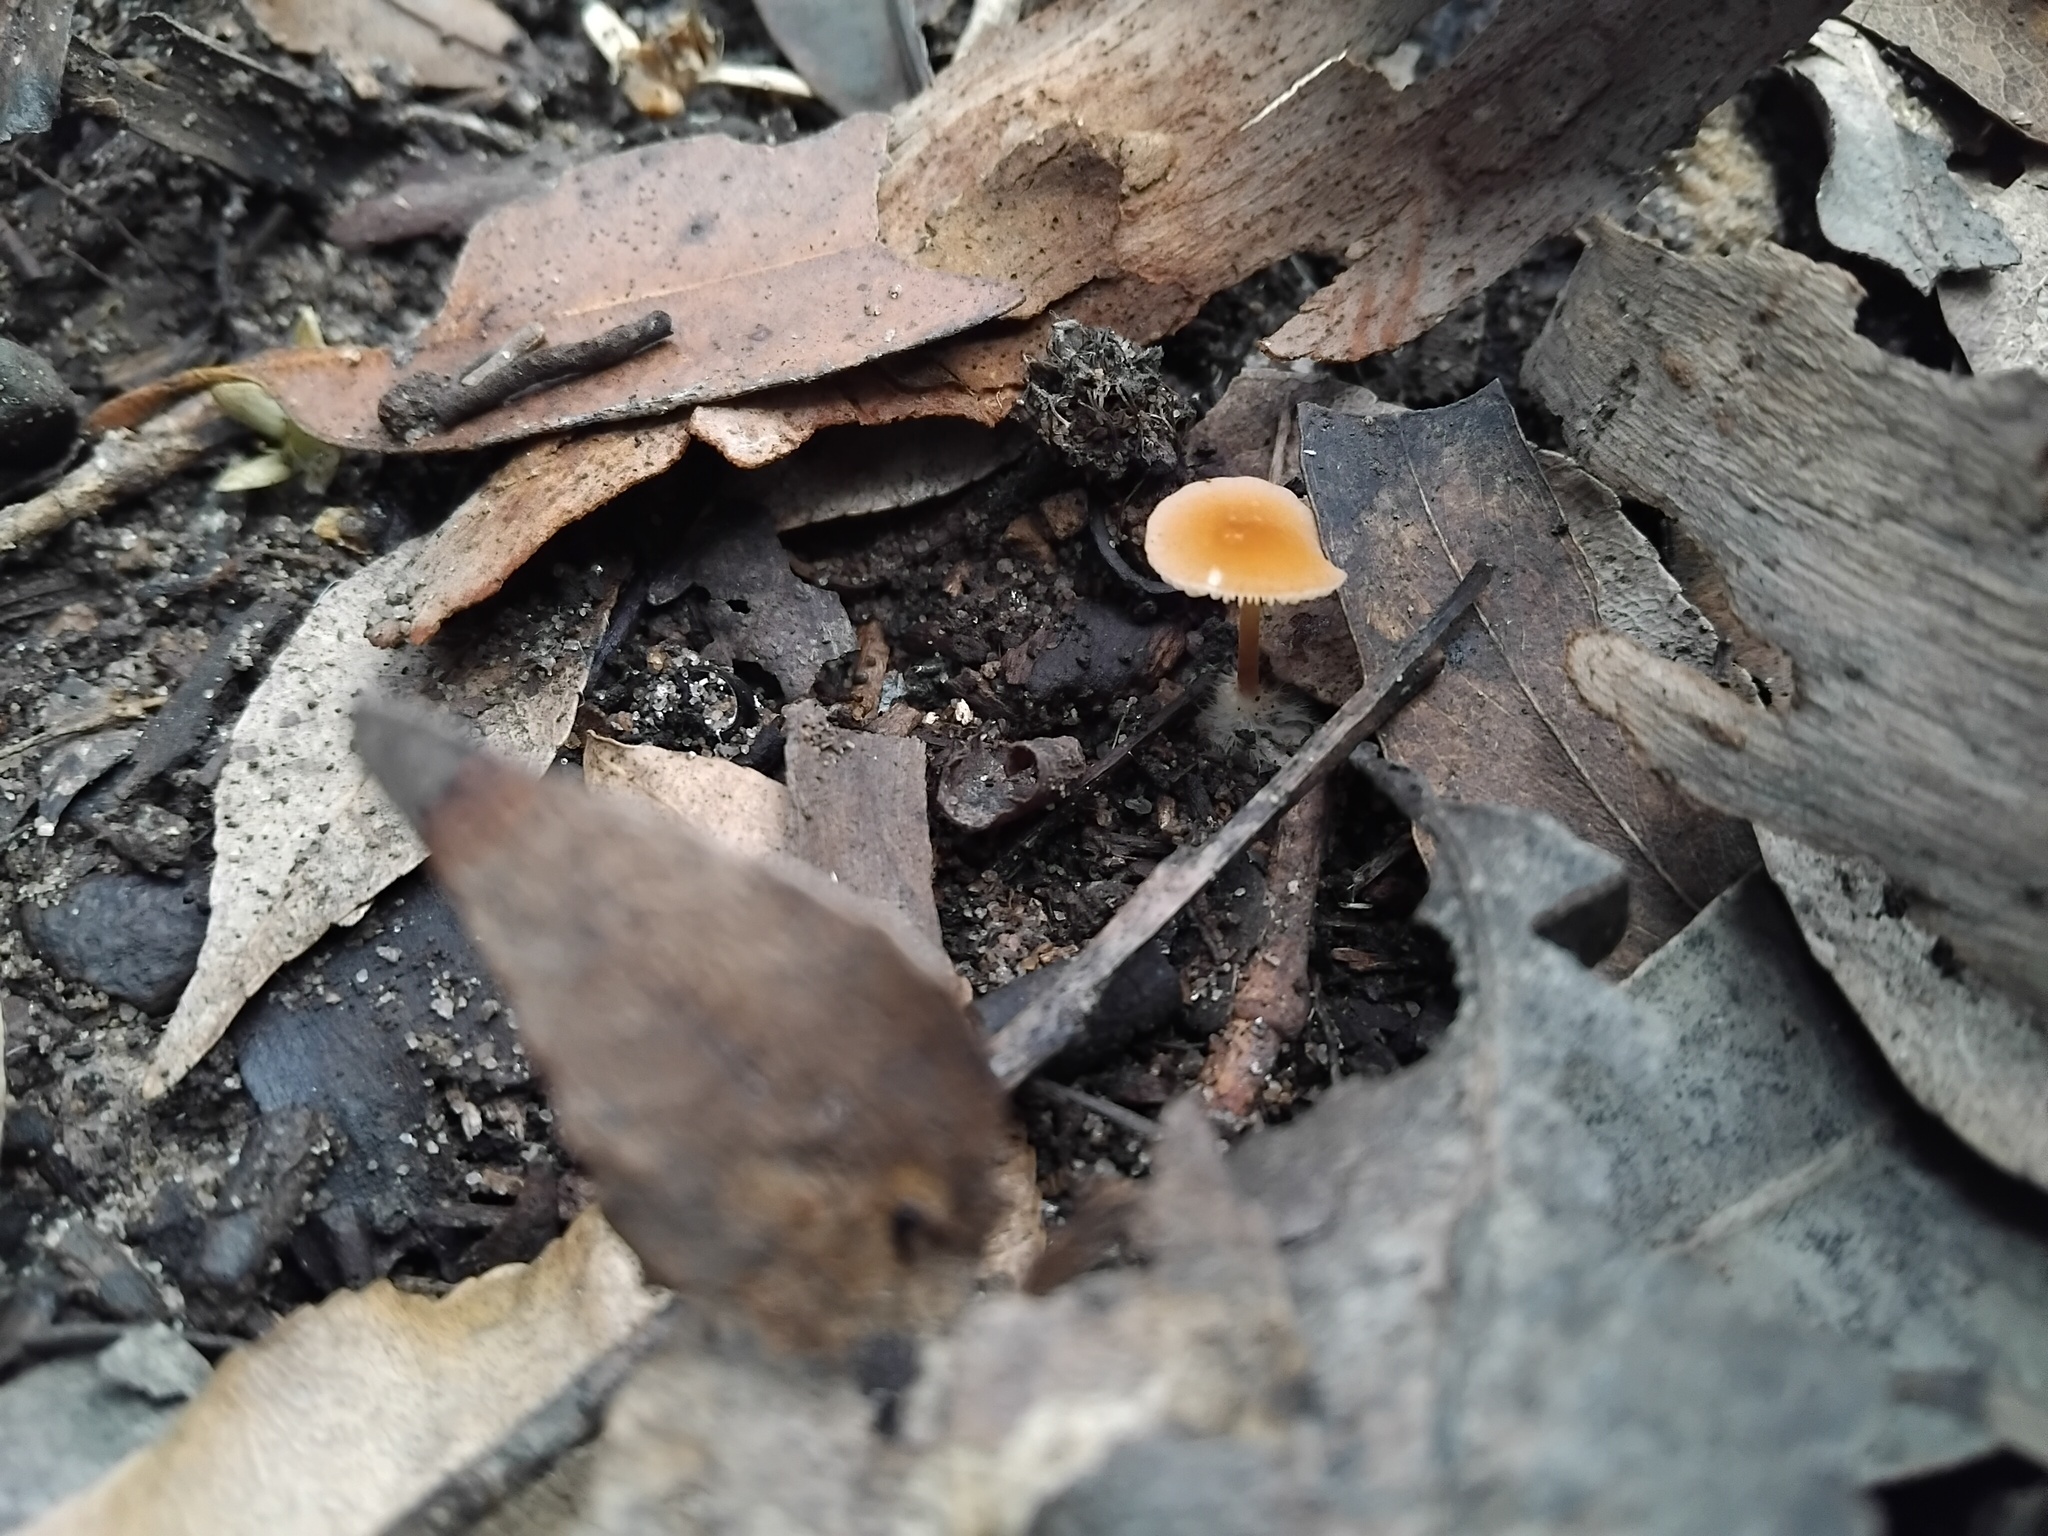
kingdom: Fungi
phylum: Basidiomycota
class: Agaricomycetes
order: Agaricales
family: Marasmiaceae
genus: Marasmius
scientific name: Marasmius elegans
